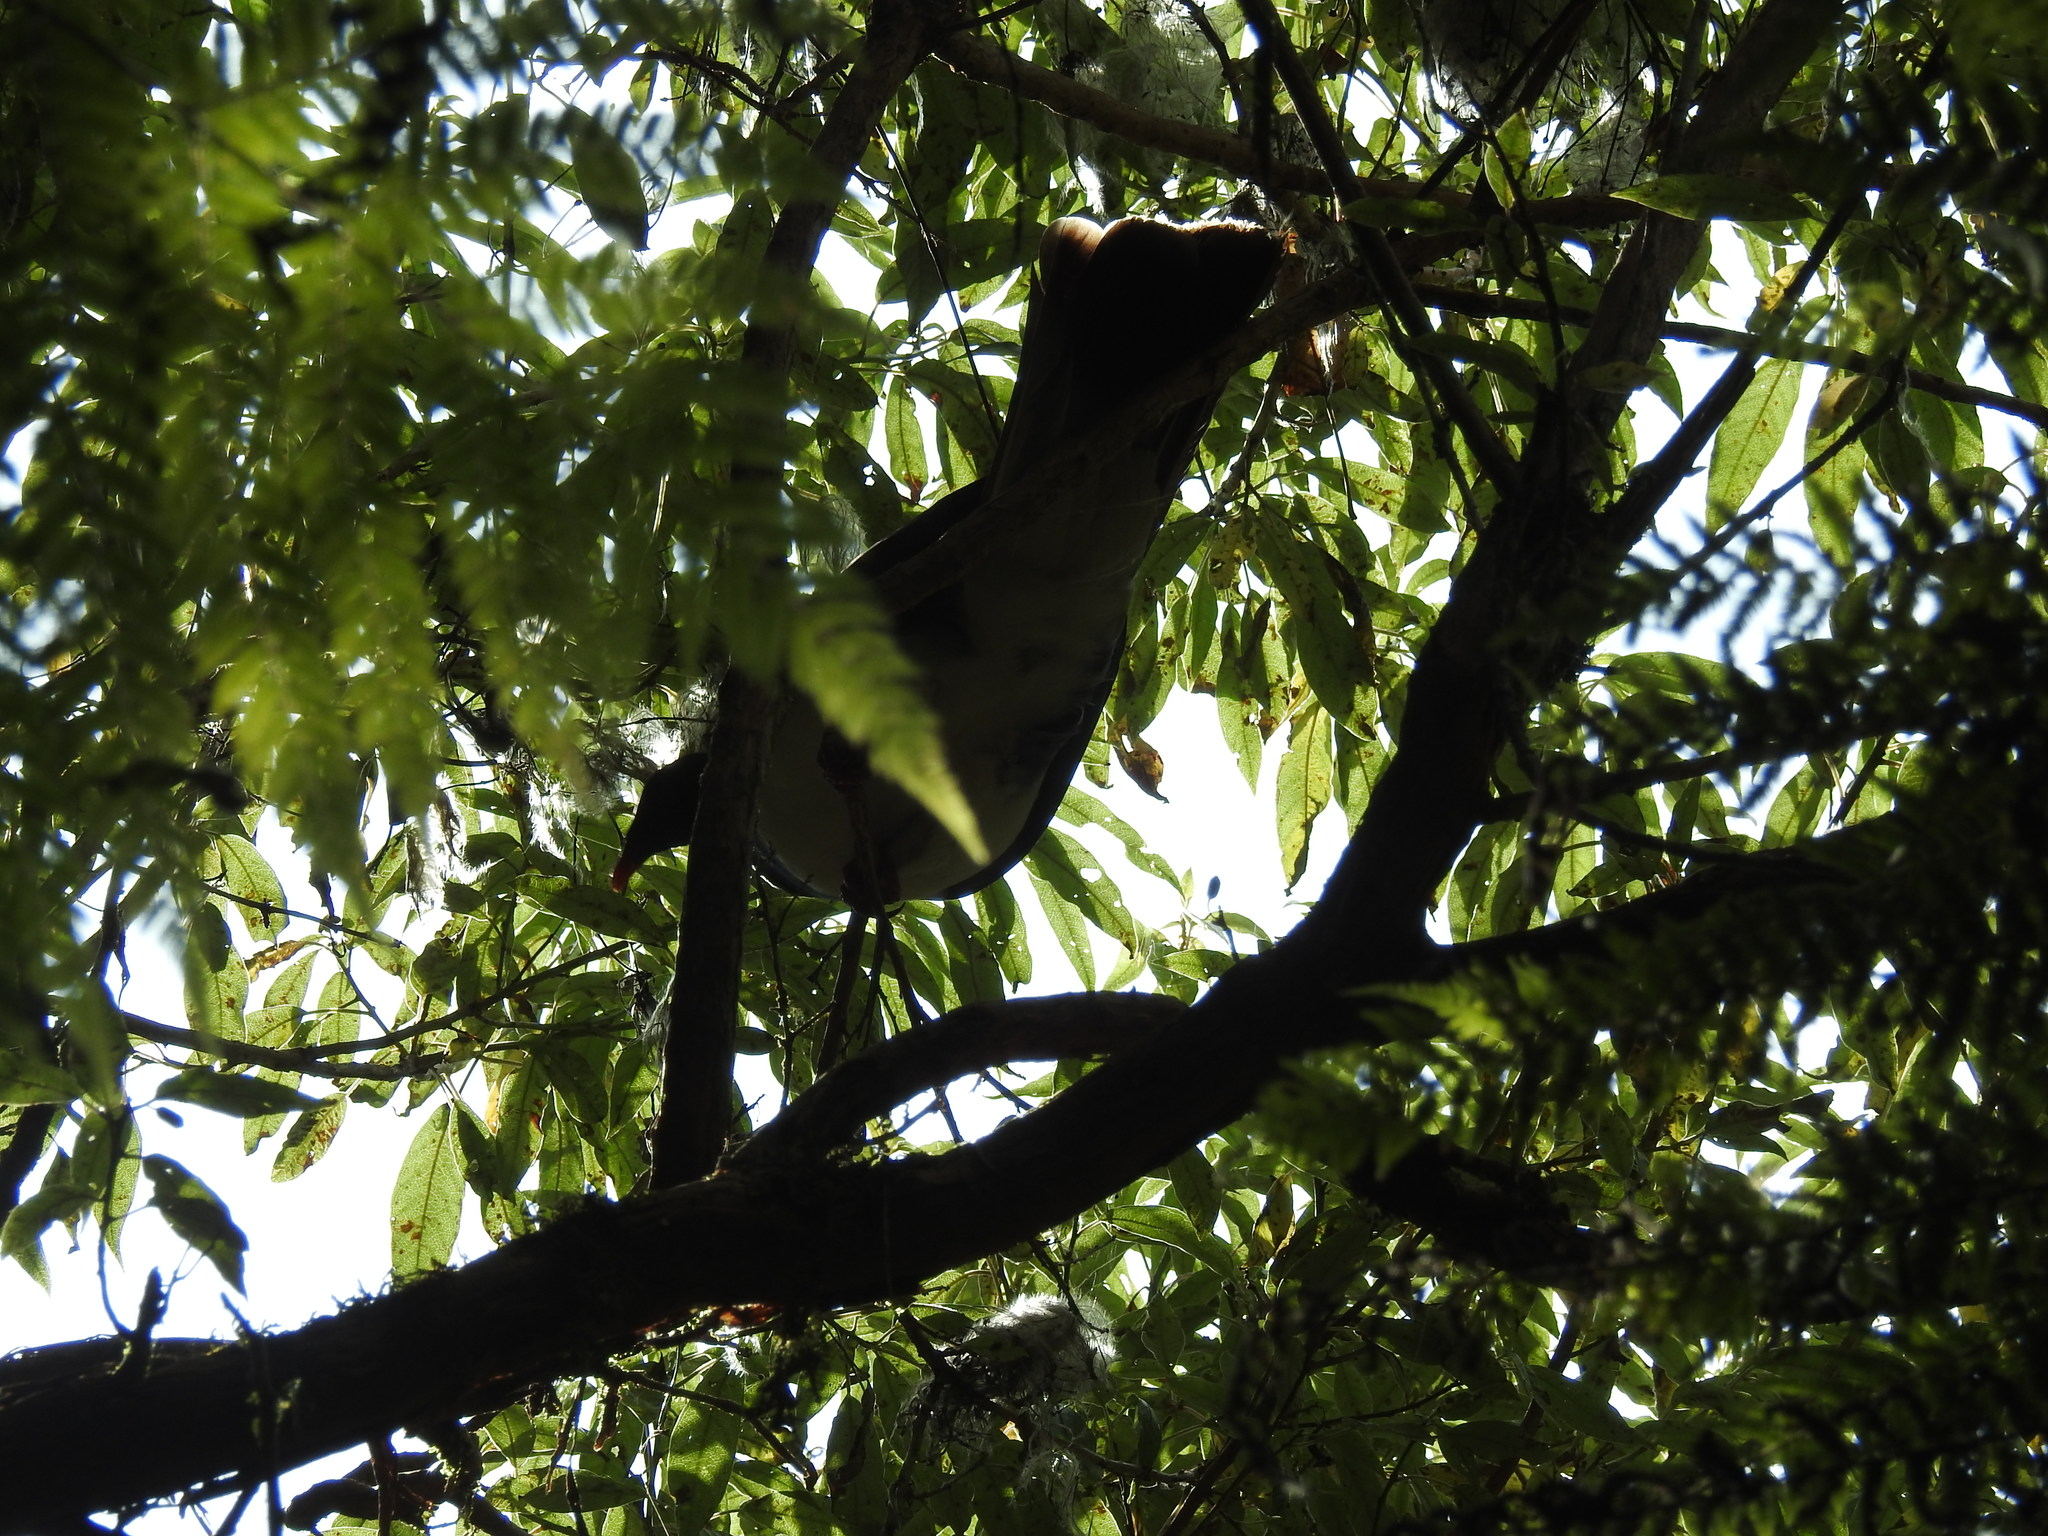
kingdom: Animalia
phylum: Chordata
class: Aves
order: Columbiformes
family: Columbidae
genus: Hemiphaga
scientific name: Hemiphaga novaeseelandiae
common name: New zealand pigeon
